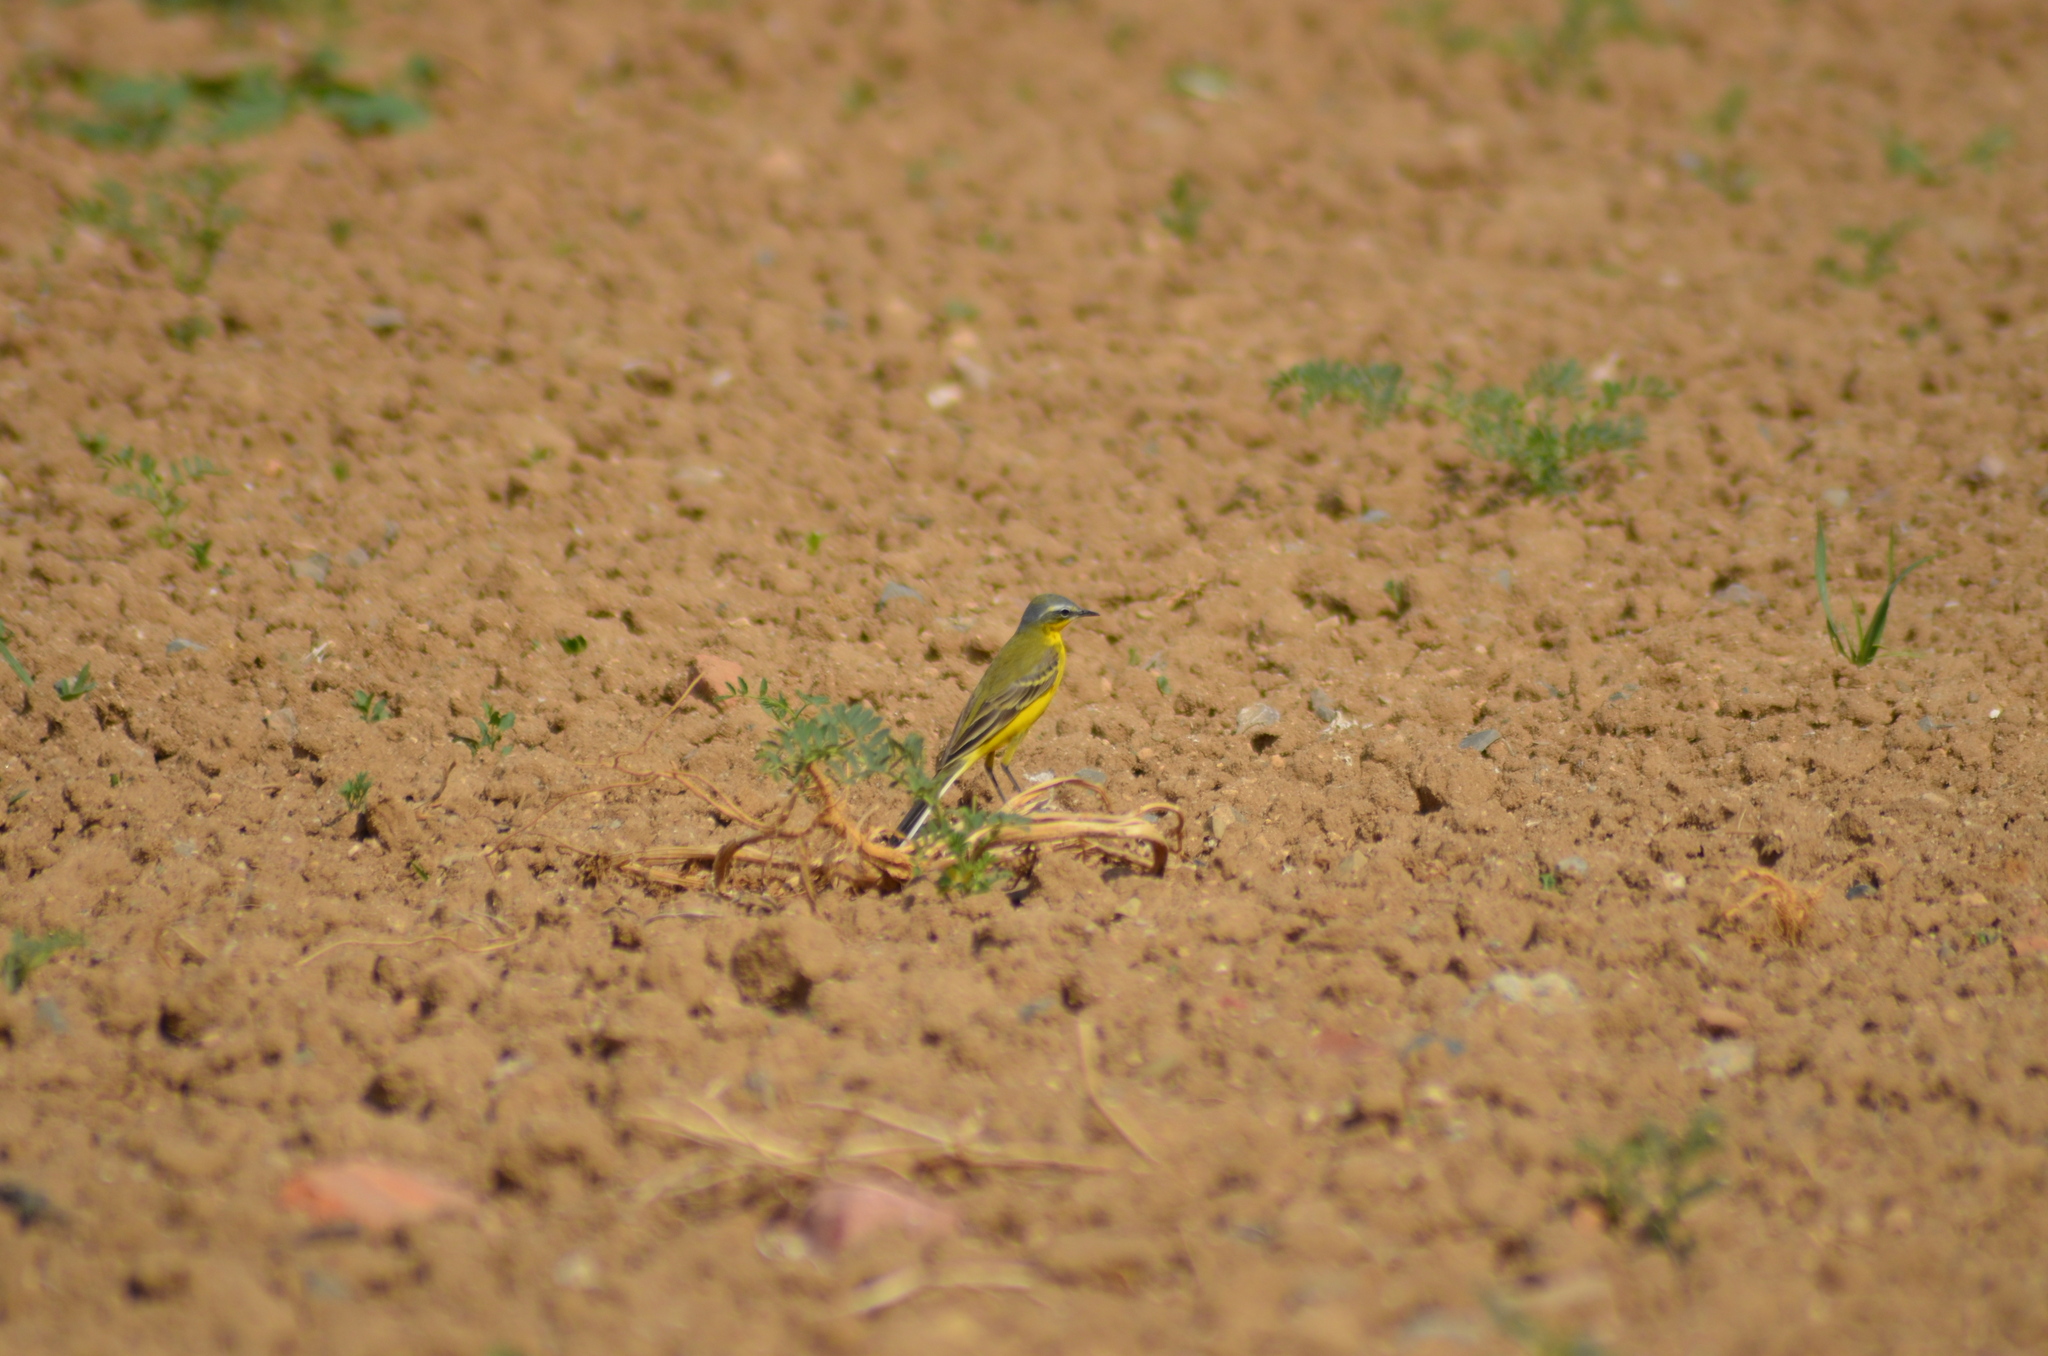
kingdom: Animalia
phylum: Chordata
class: Aves
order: Passeriformes
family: Motacillidae
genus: Motacilla
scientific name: Motacilla flava
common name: Western yellow wagtail
